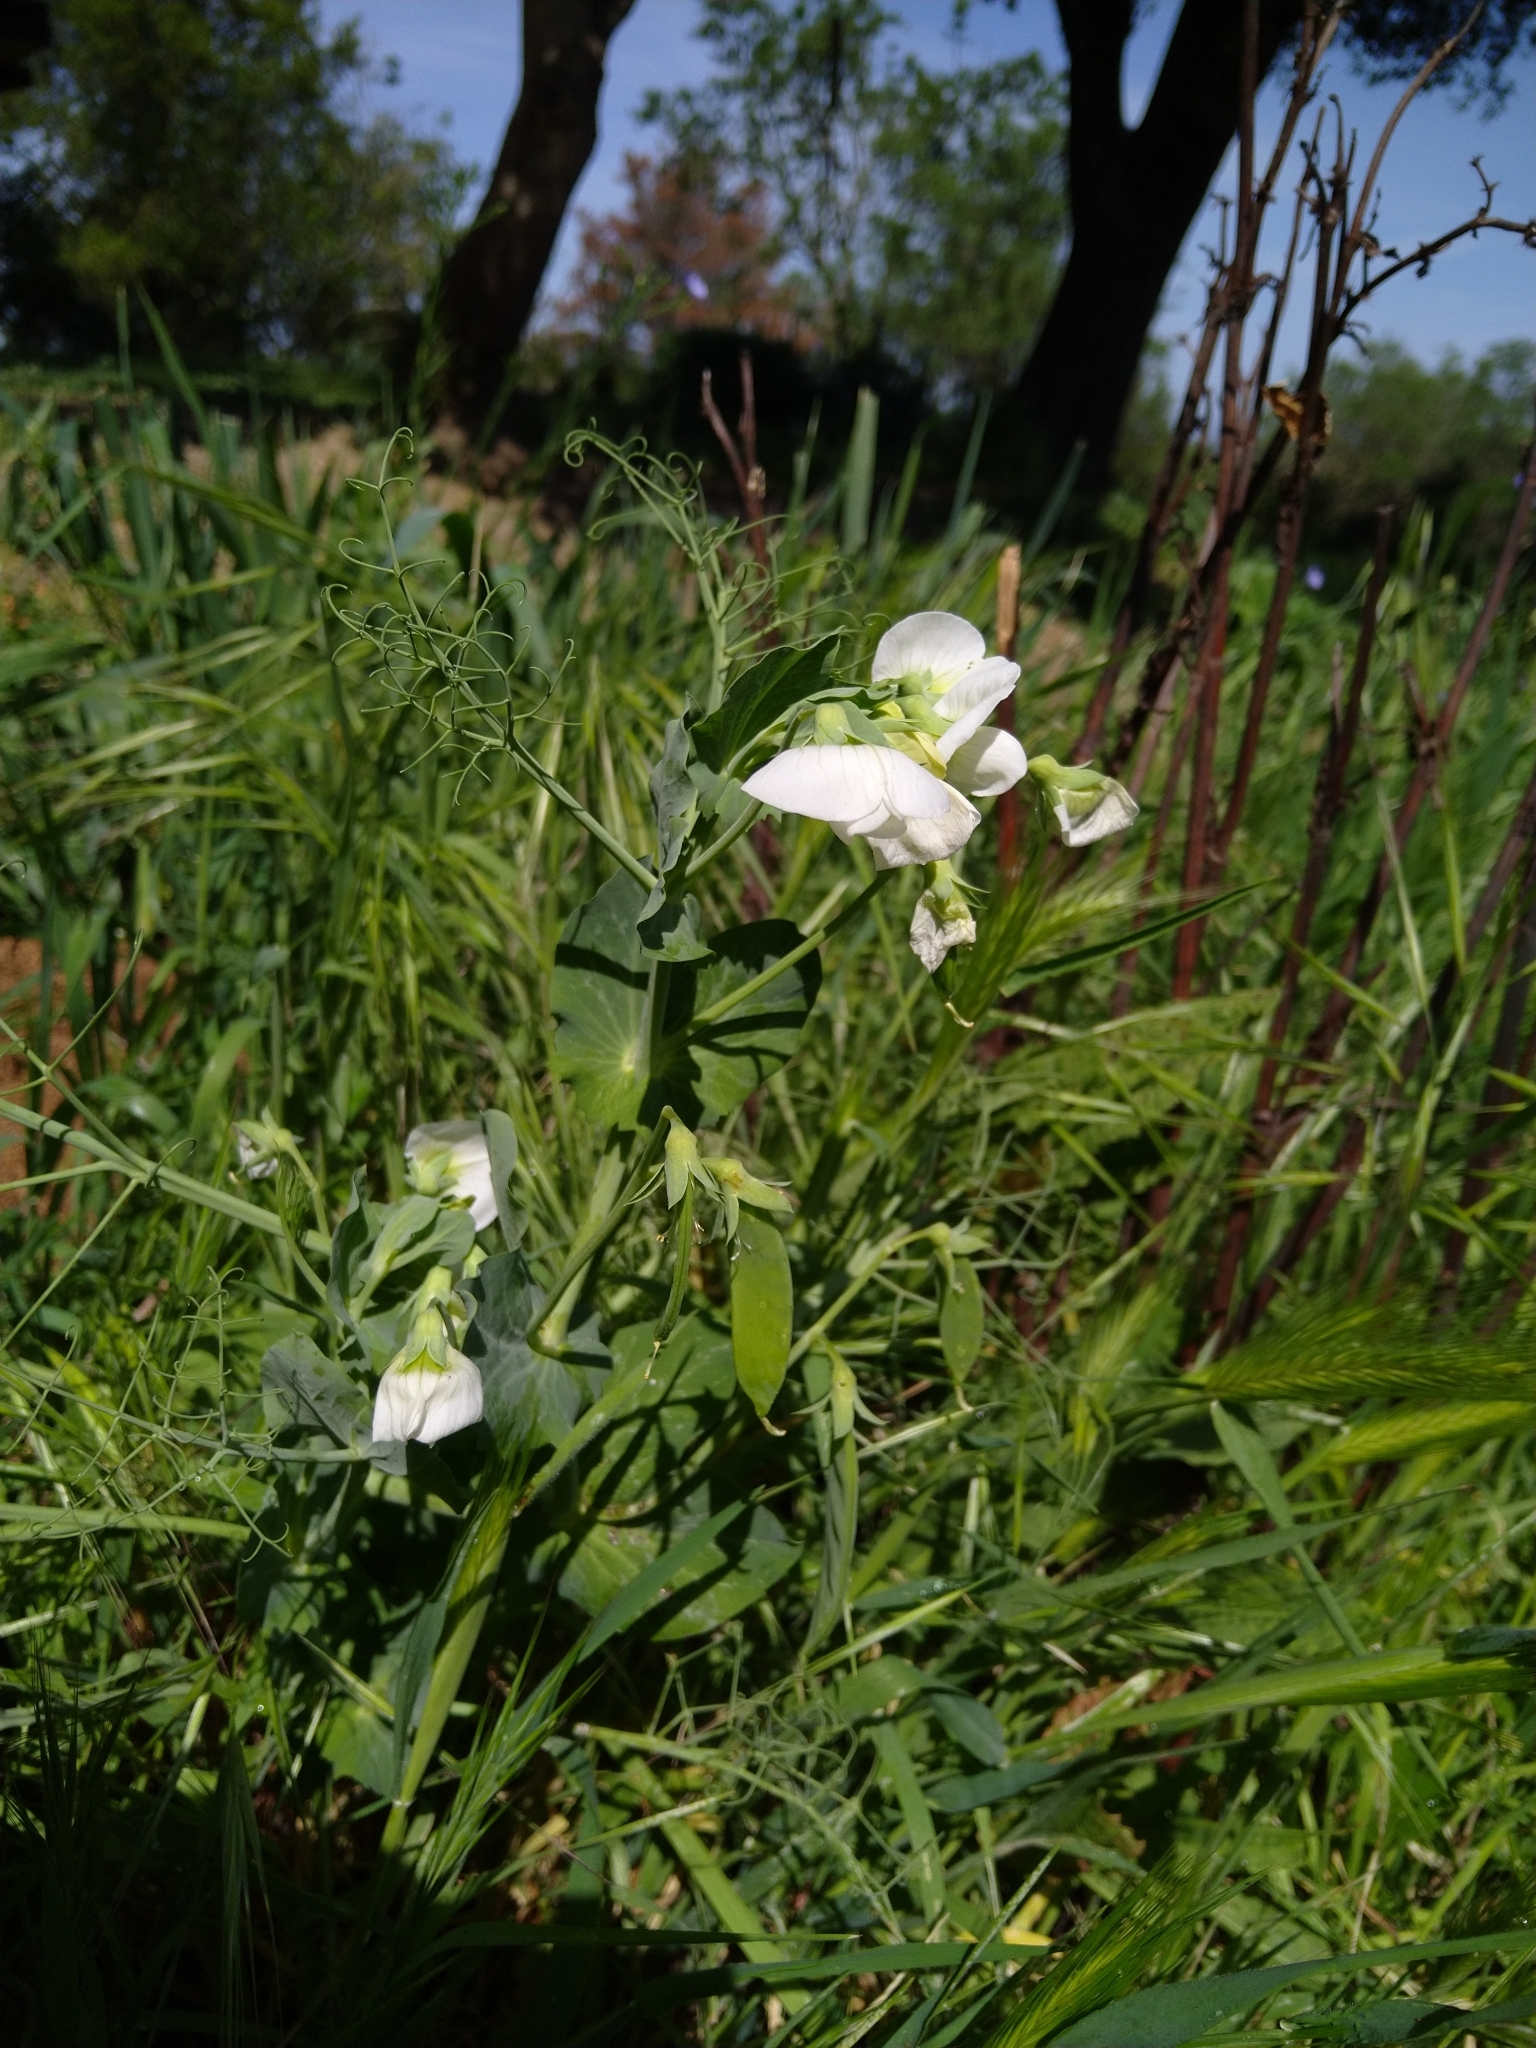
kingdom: Plantae
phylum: Tracheophyta
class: Magnoliopsida
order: Fabales
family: Fabaceae
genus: Lathyrus
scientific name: Lathyrus oleraceus
